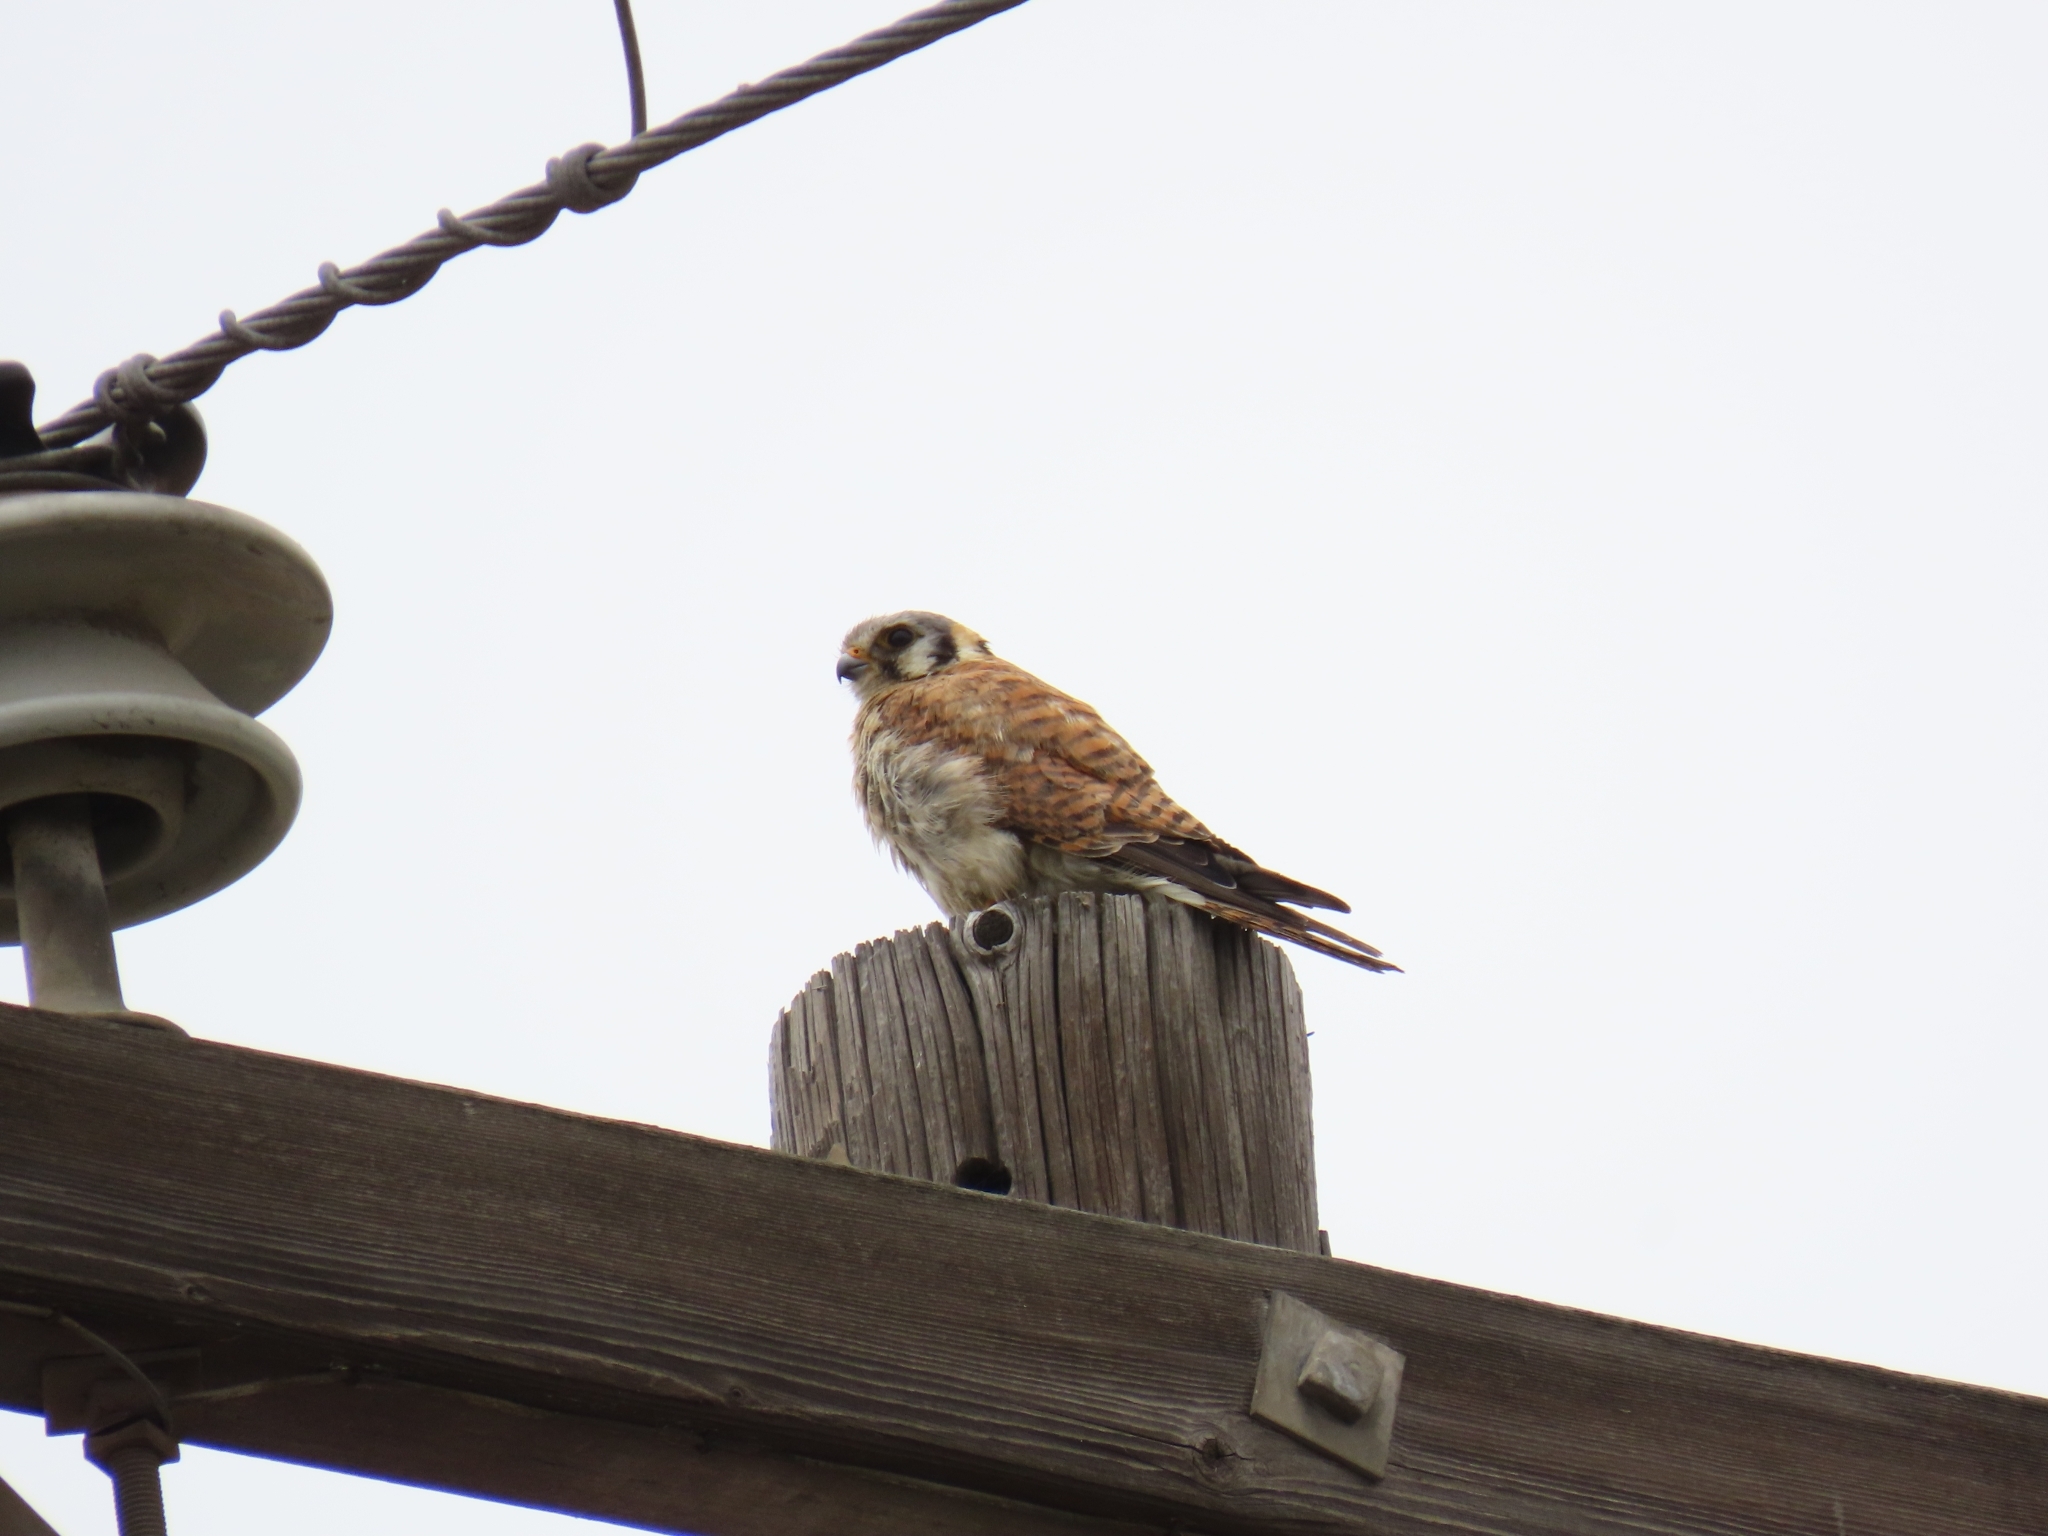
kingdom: Animalia
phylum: Chordata
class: Aves
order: Falconiformes
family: Falconidae
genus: Falco
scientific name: Falco sparverius
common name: American kestrel
